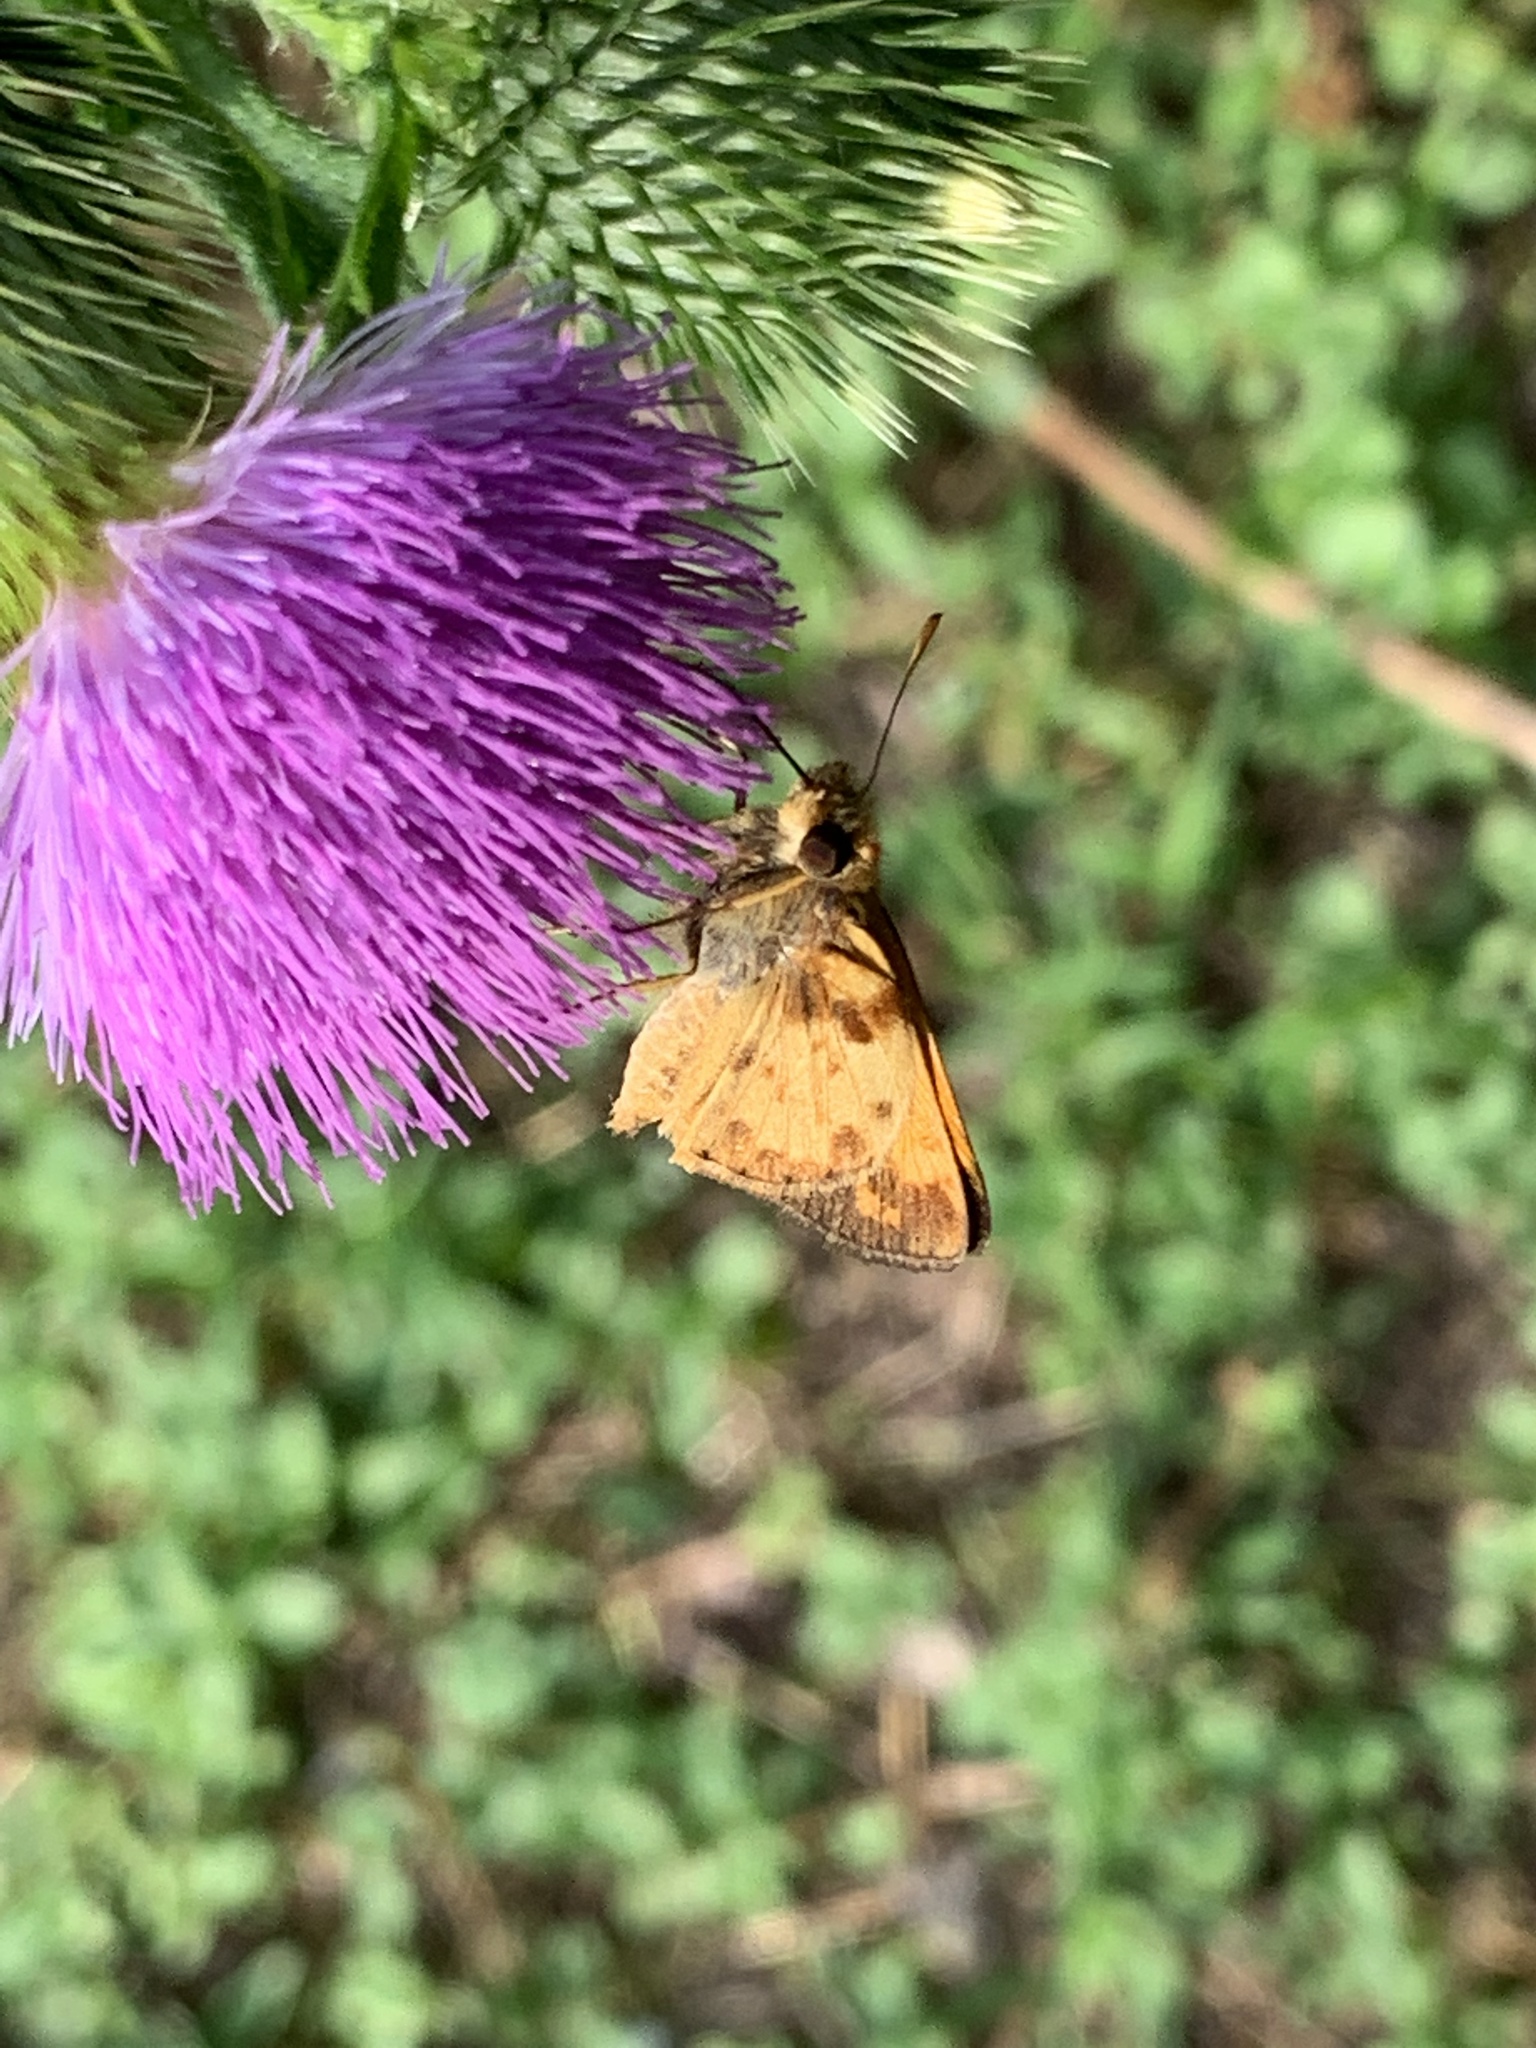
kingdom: Animalia
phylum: Arthropoda
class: Insecta
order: Lepidoptera
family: Hesperiidae
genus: Lon
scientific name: Lon zabulon
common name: Zabulon skipper
